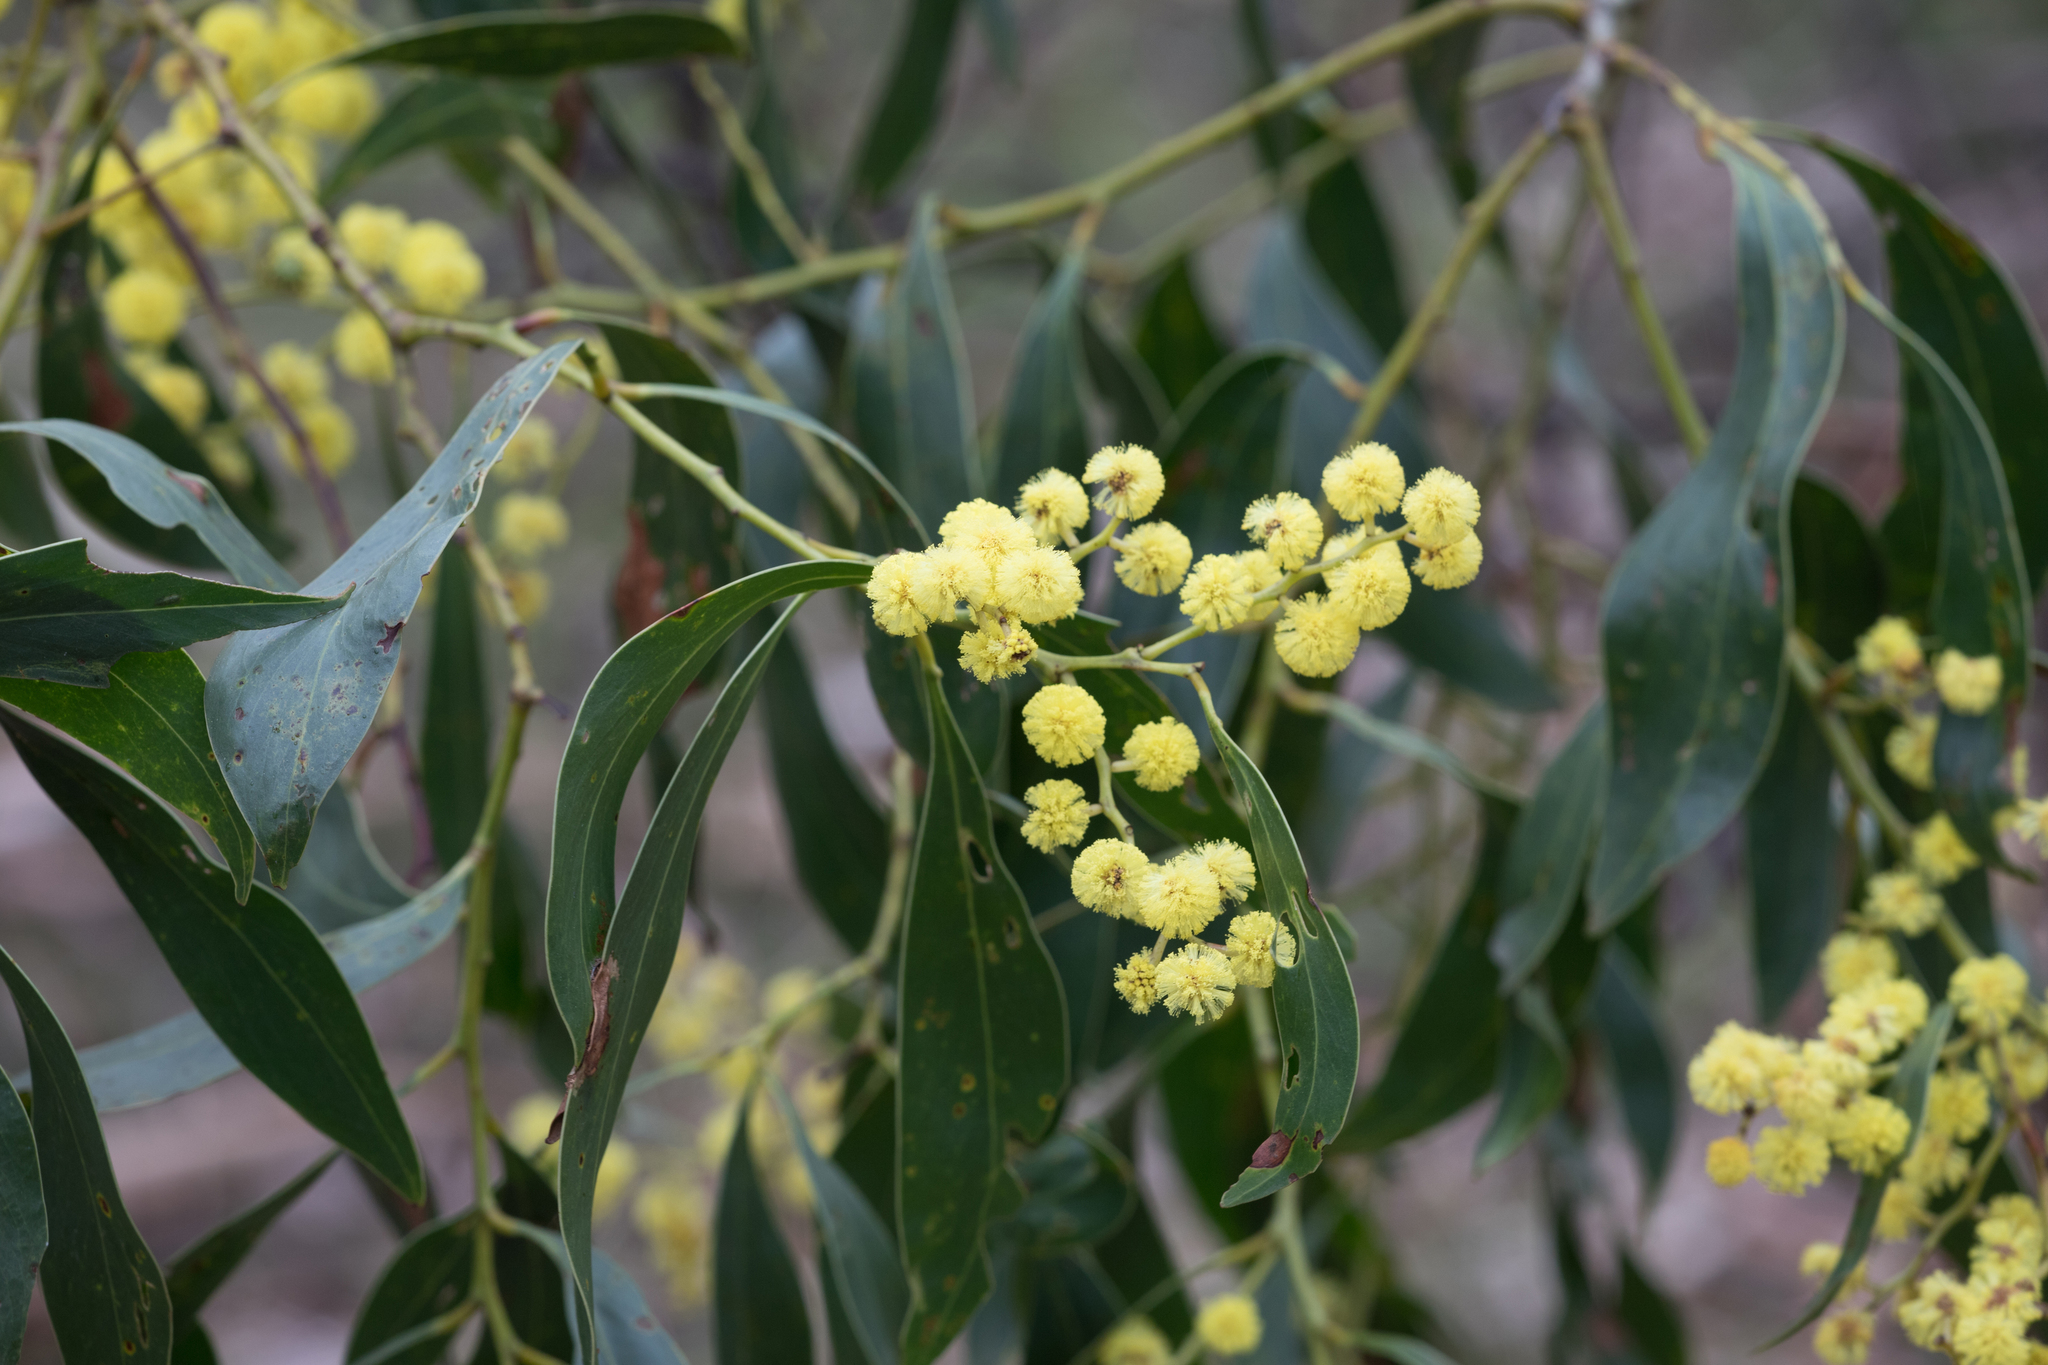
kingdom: Plantae
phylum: Tracheophyta
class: Magnoliopsida
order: Fabales
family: Fabaceae
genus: Acacia
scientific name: Acacia pycnantha
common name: Golden wattle
